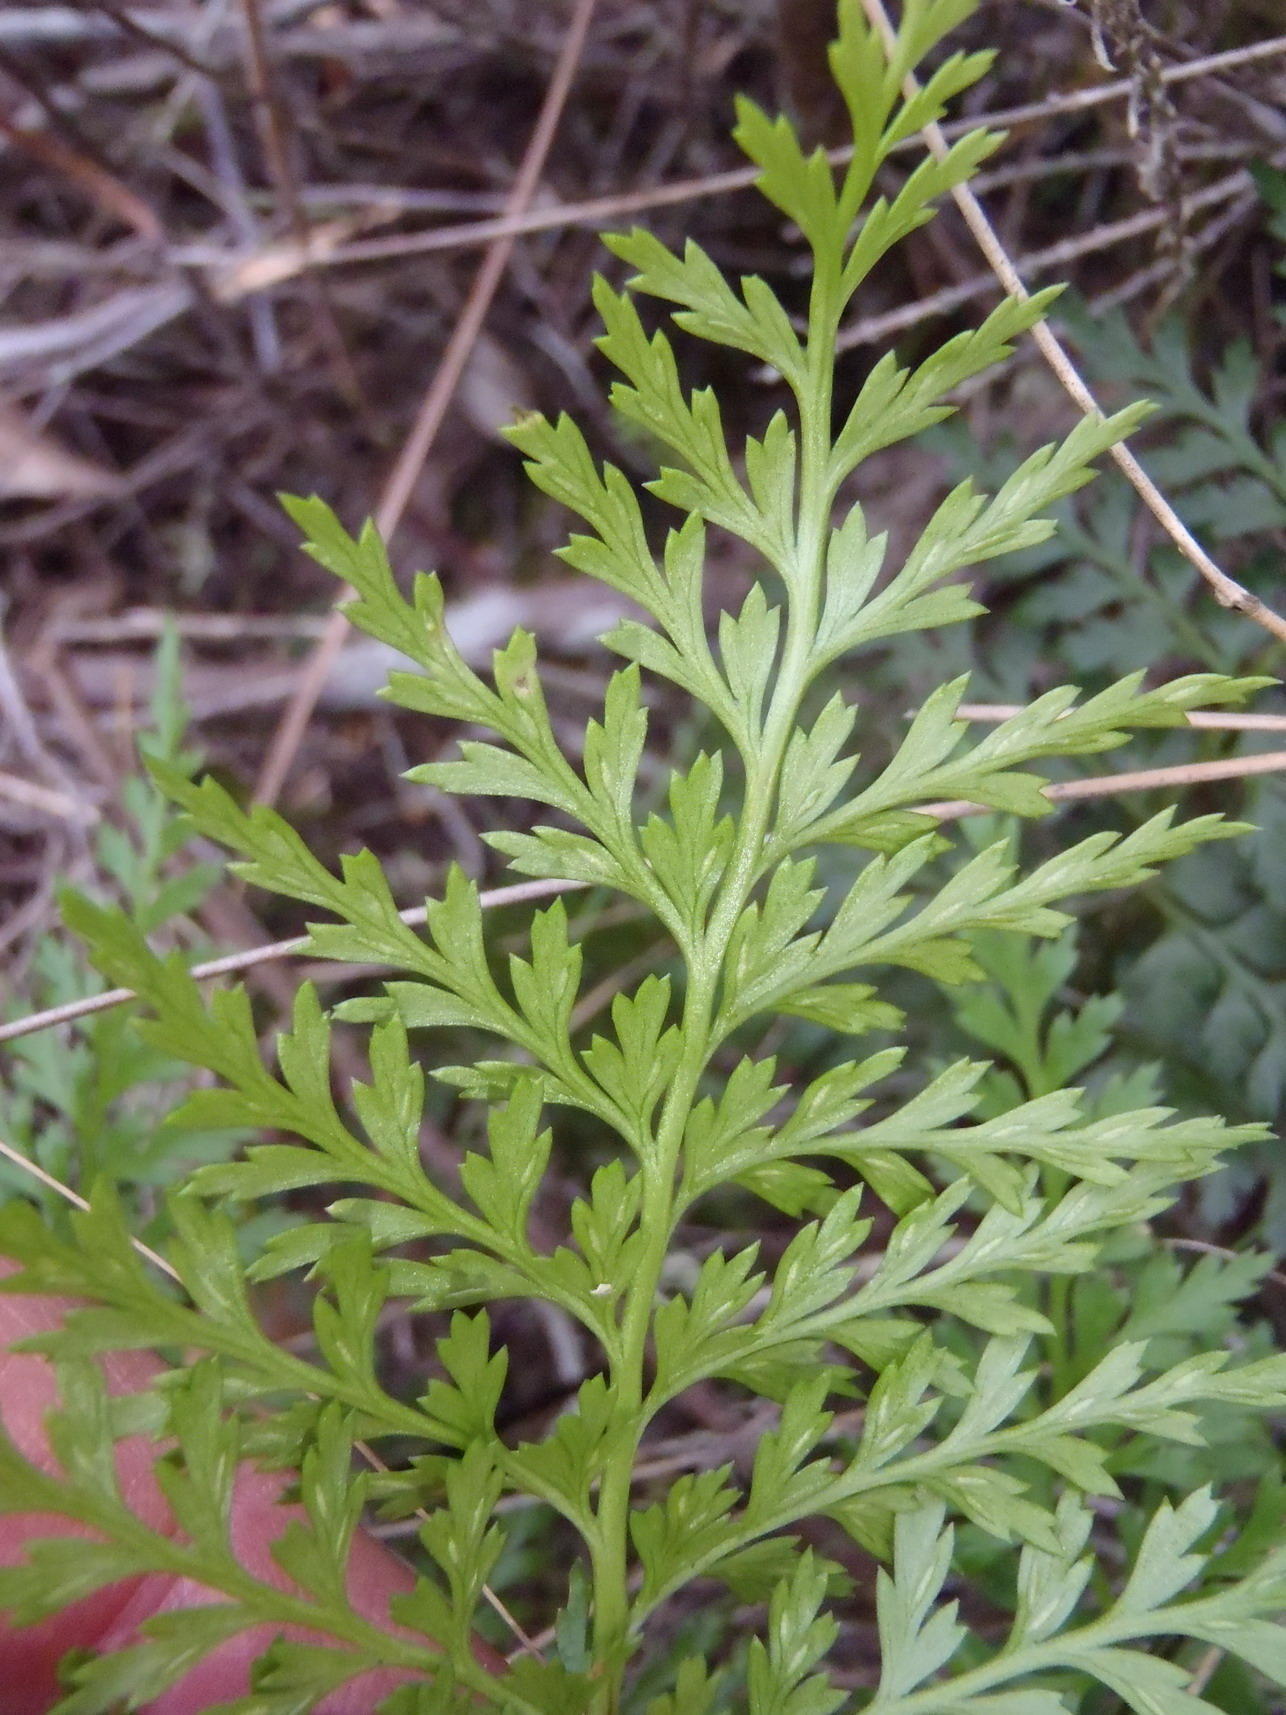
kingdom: Plantae
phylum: Tracheophyta
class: Polypodiopsida
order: Polypodiales
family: Aspleniaceae
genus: Asplenium
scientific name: Asplenium adiantum-nigrum
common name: Black spleenwort
